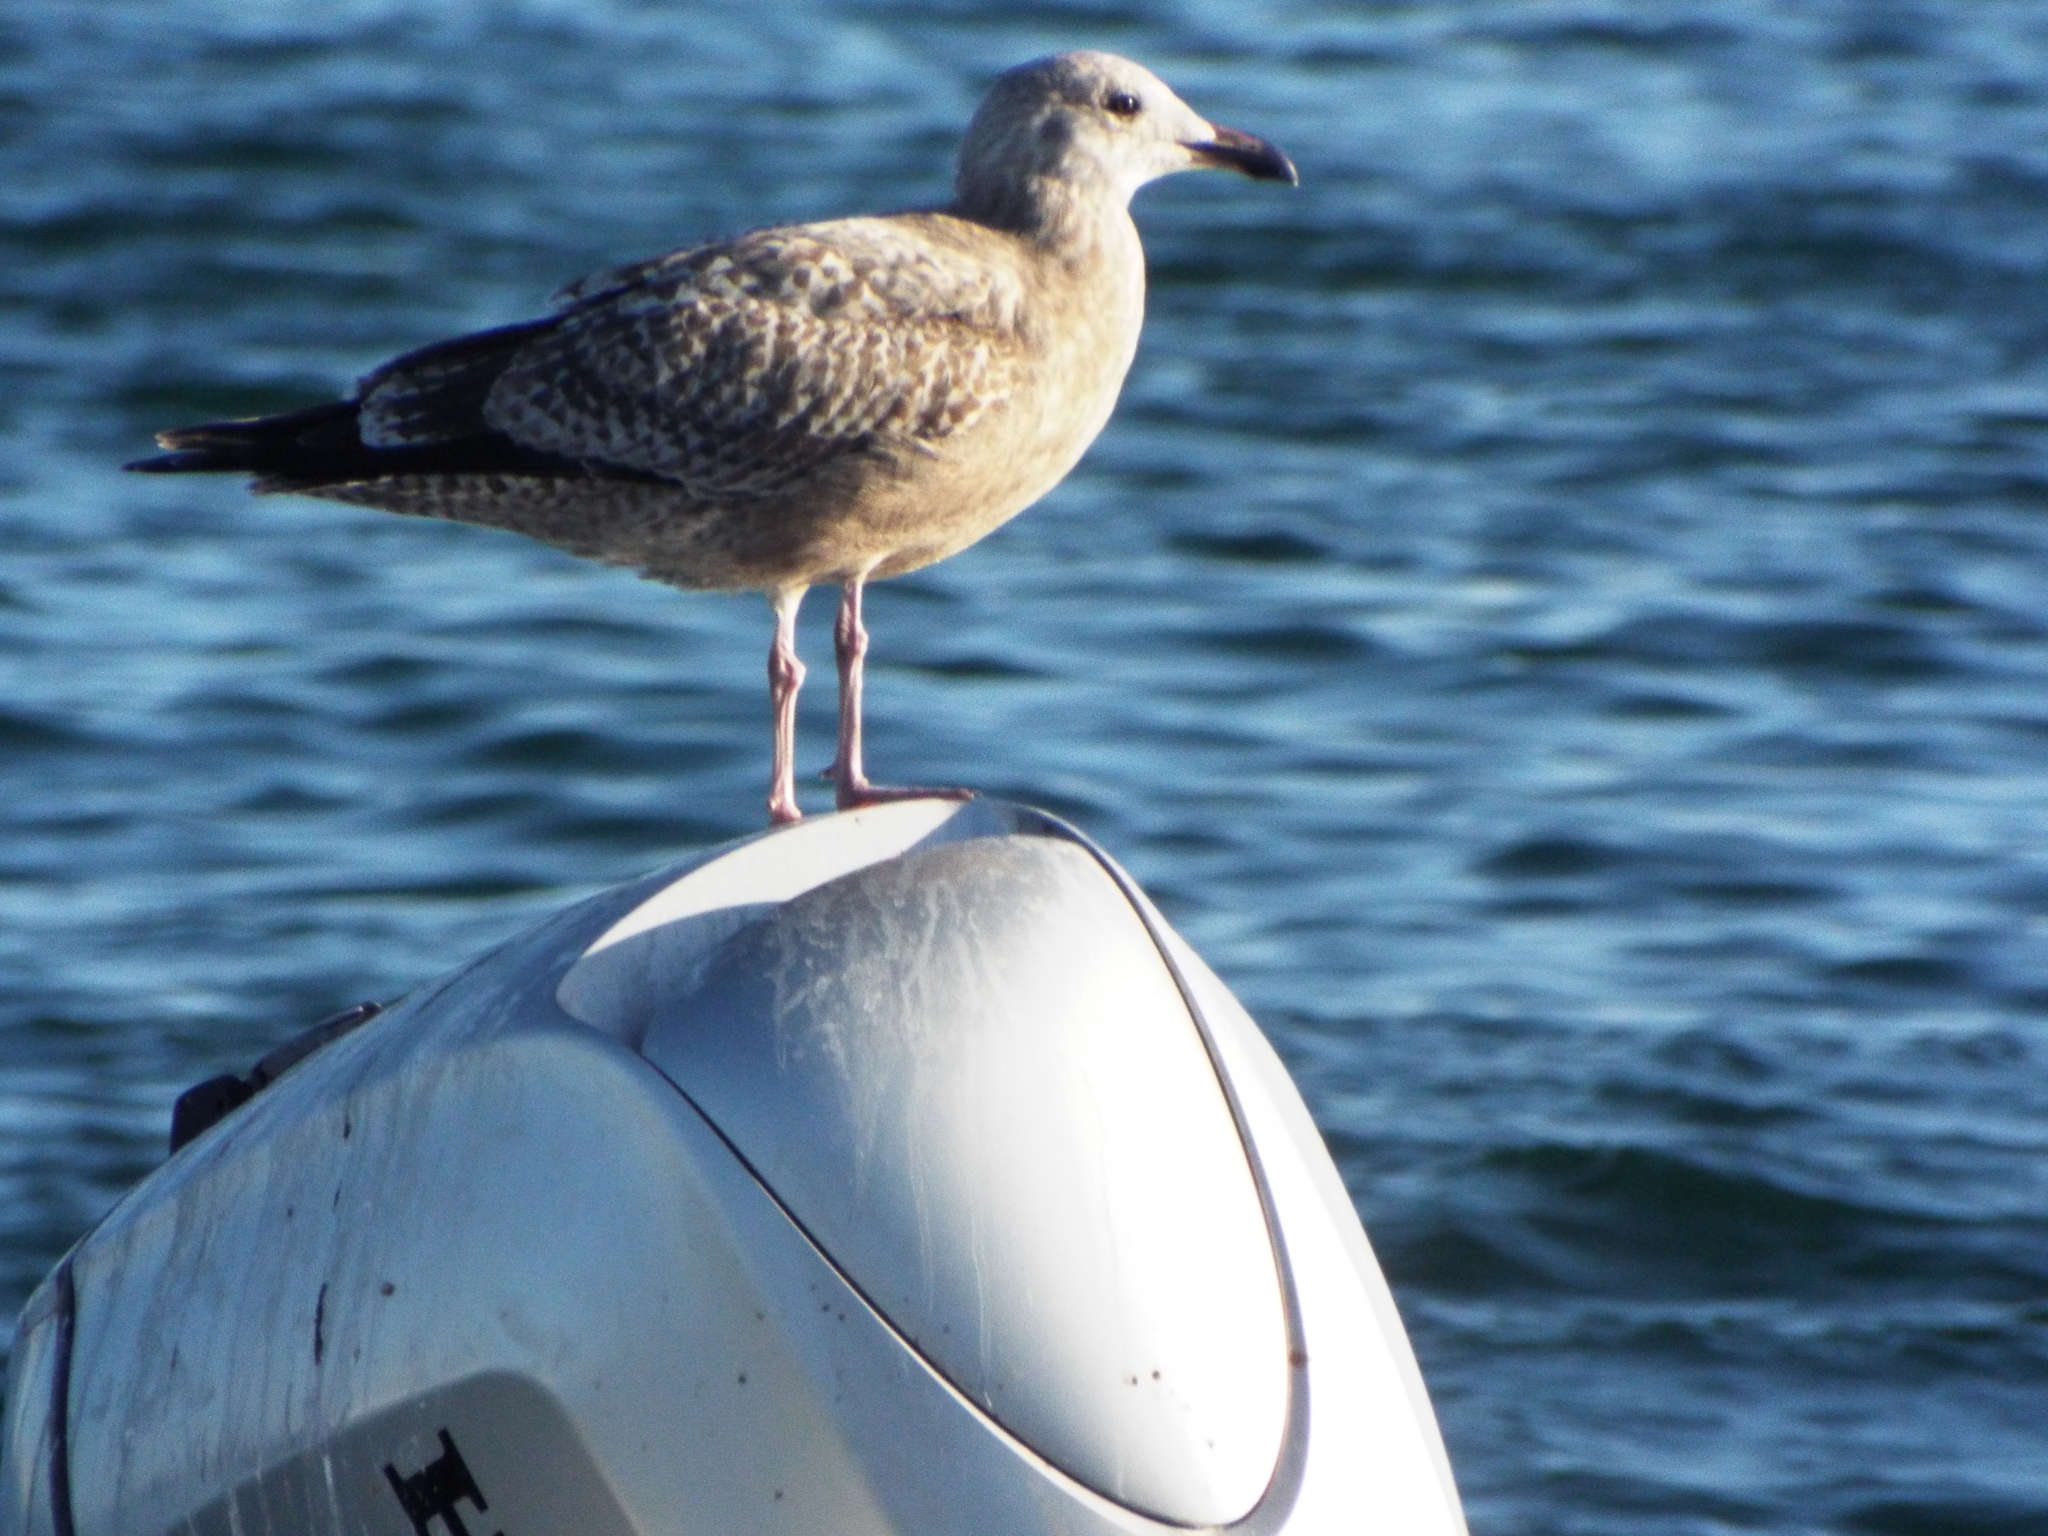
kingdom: Animalia
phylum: Chordata
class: Aves
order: Charadriiformes
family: Laridae
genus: Larus
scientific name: Larus argentatus
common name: Herring gull
